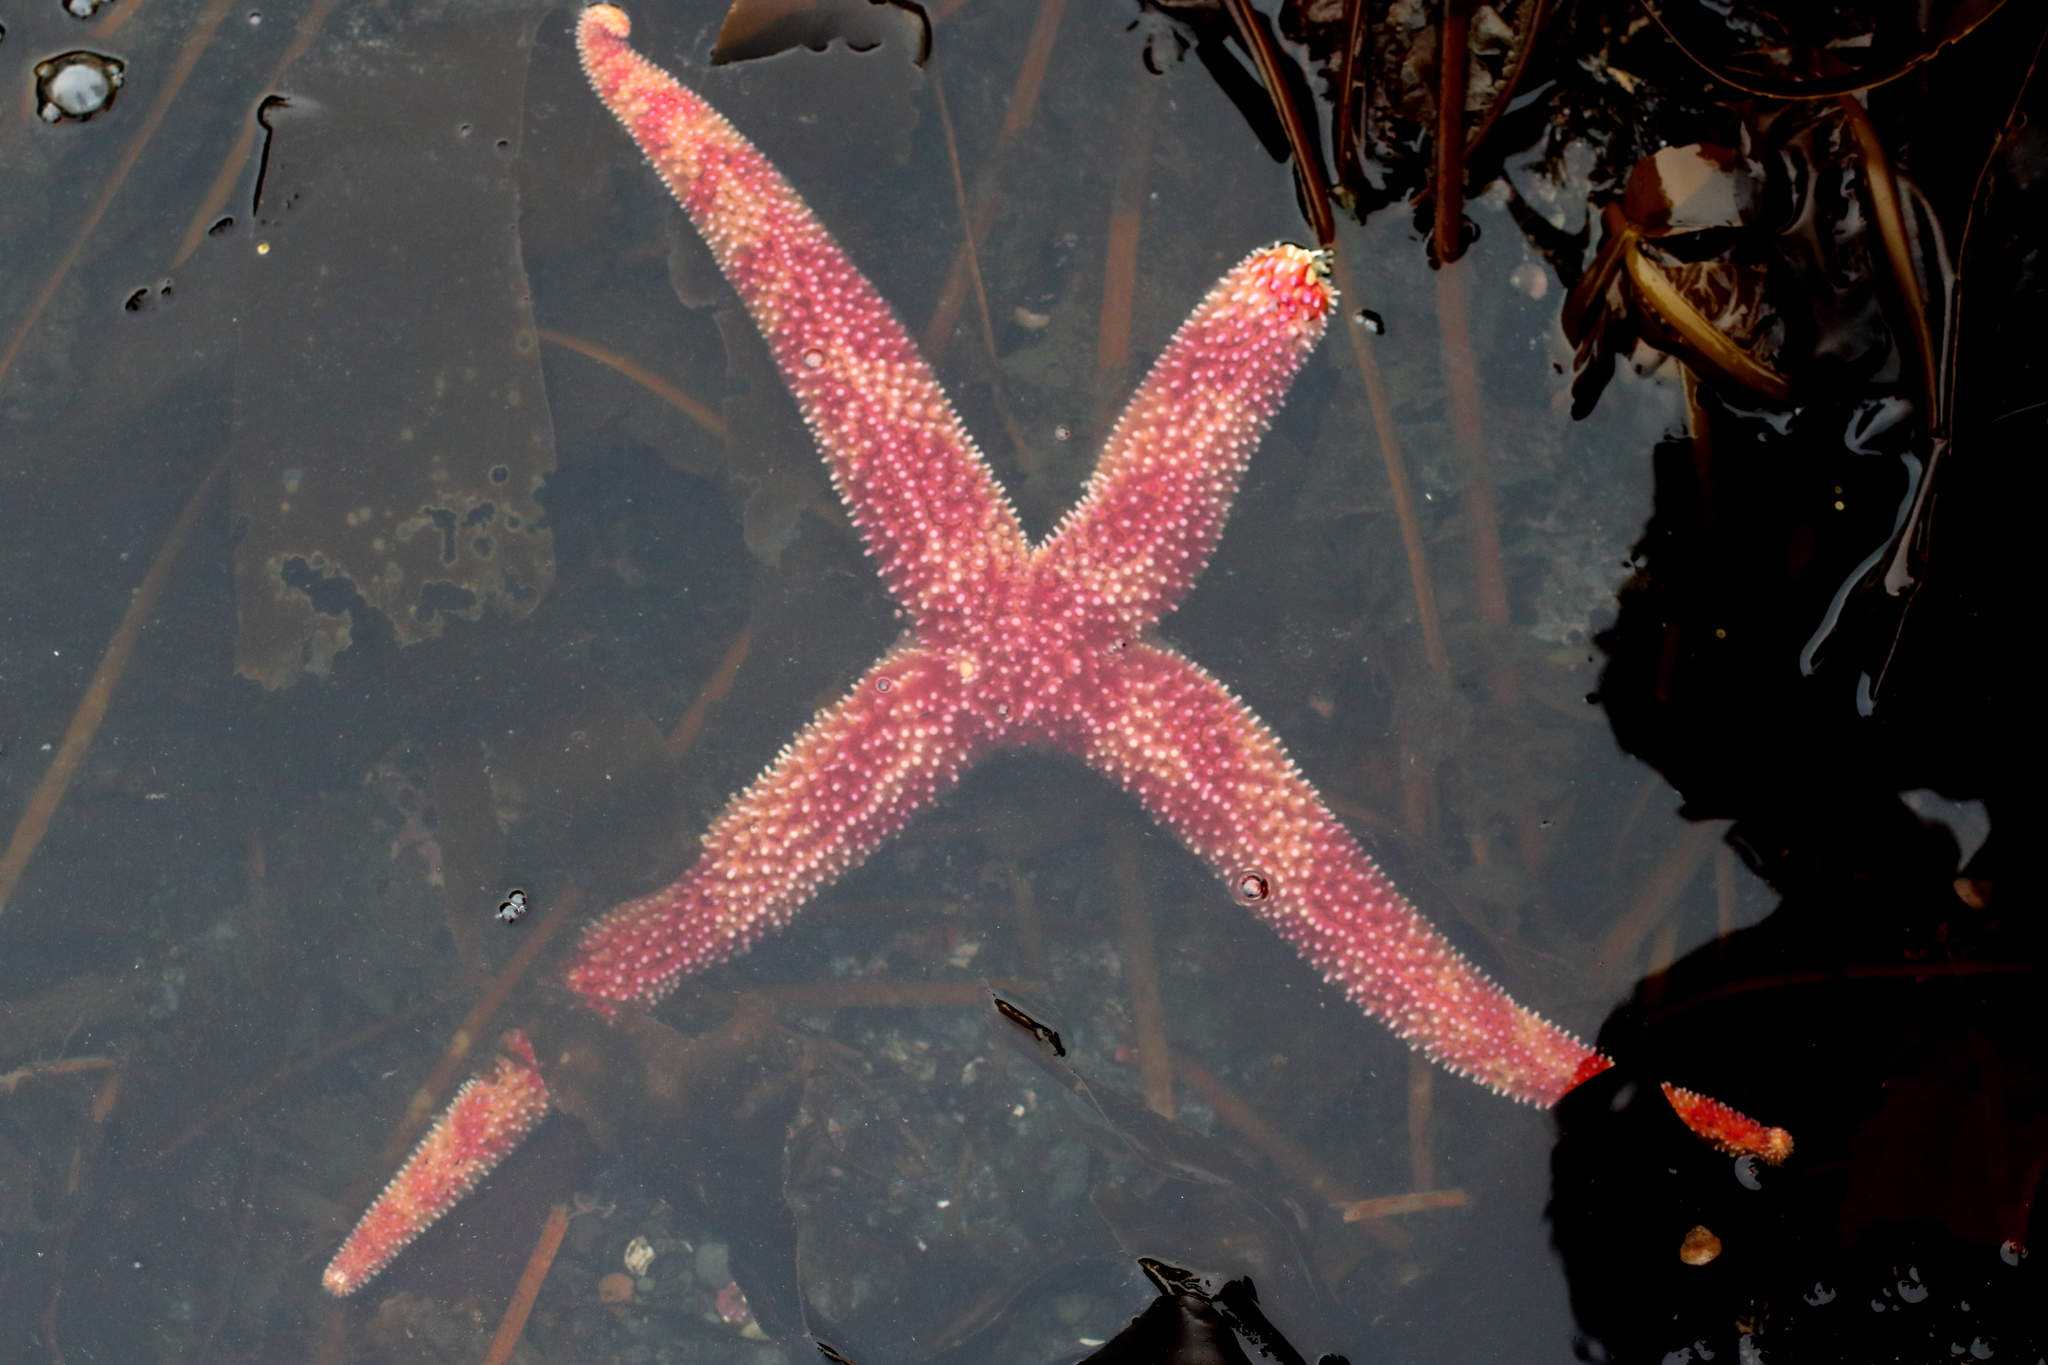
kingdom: Animalia
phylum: Echinodermata
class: Asteroidea
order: Forcipulatida
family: Asteriidae
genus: Orthasterias
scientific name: Orthasterias koehleri
